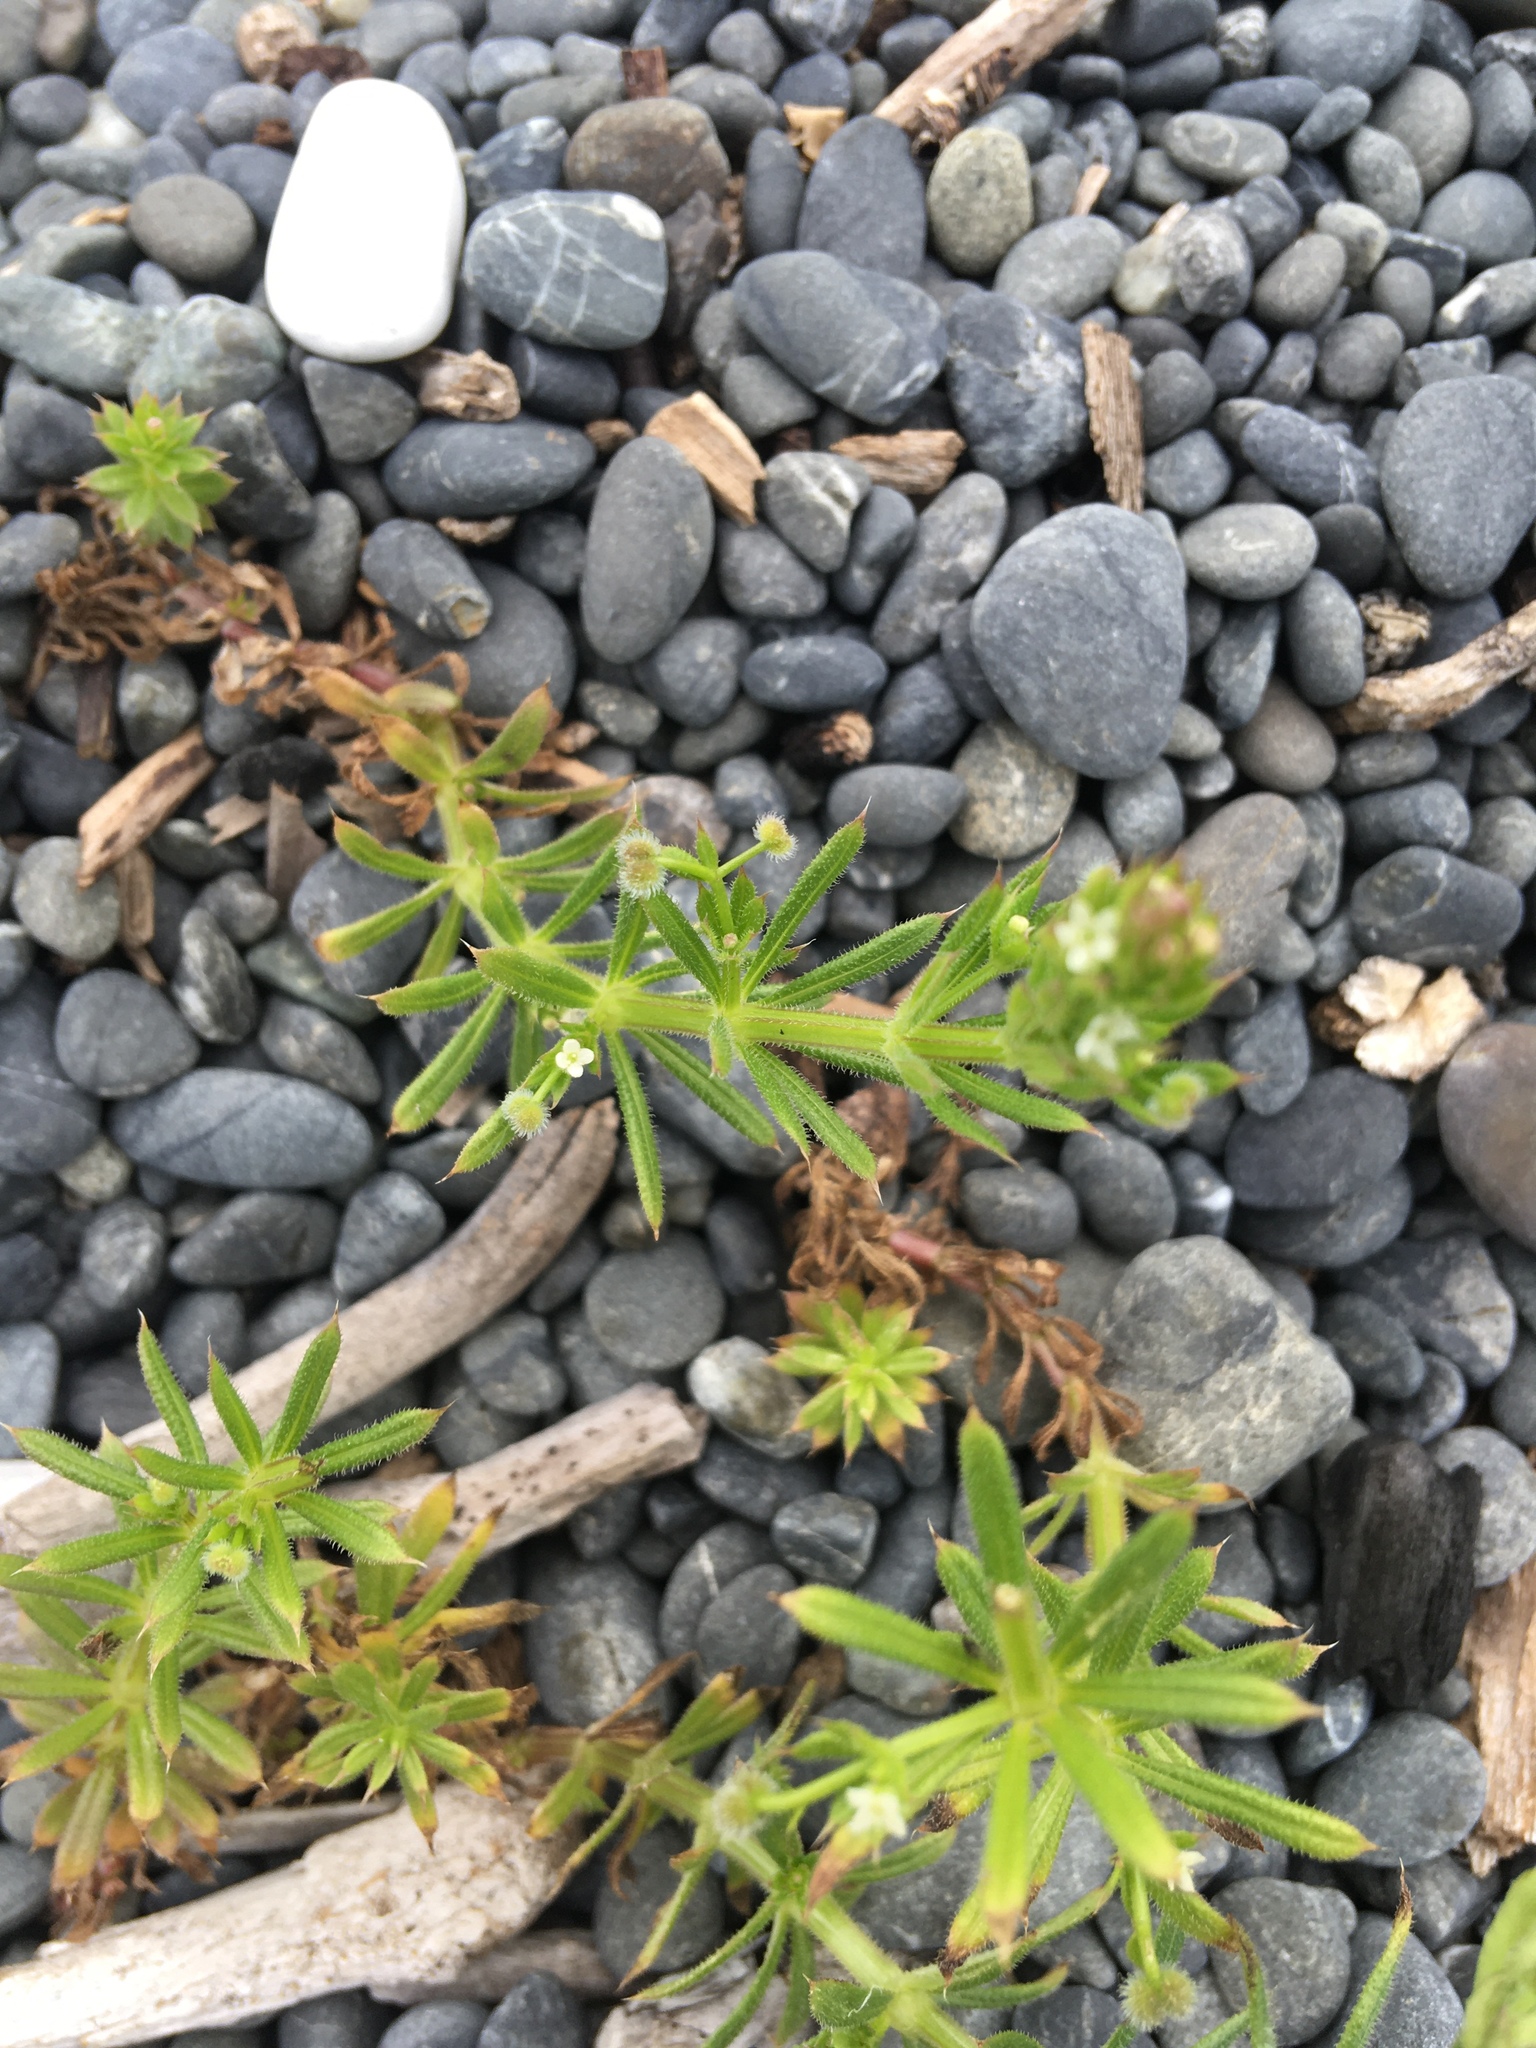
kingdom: Plantae
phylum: Tracheophyta
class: Magnoliopsida
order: Gentianales
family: Rubiaceae
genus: Galium
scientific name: Galium aparine
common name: Cleavers
